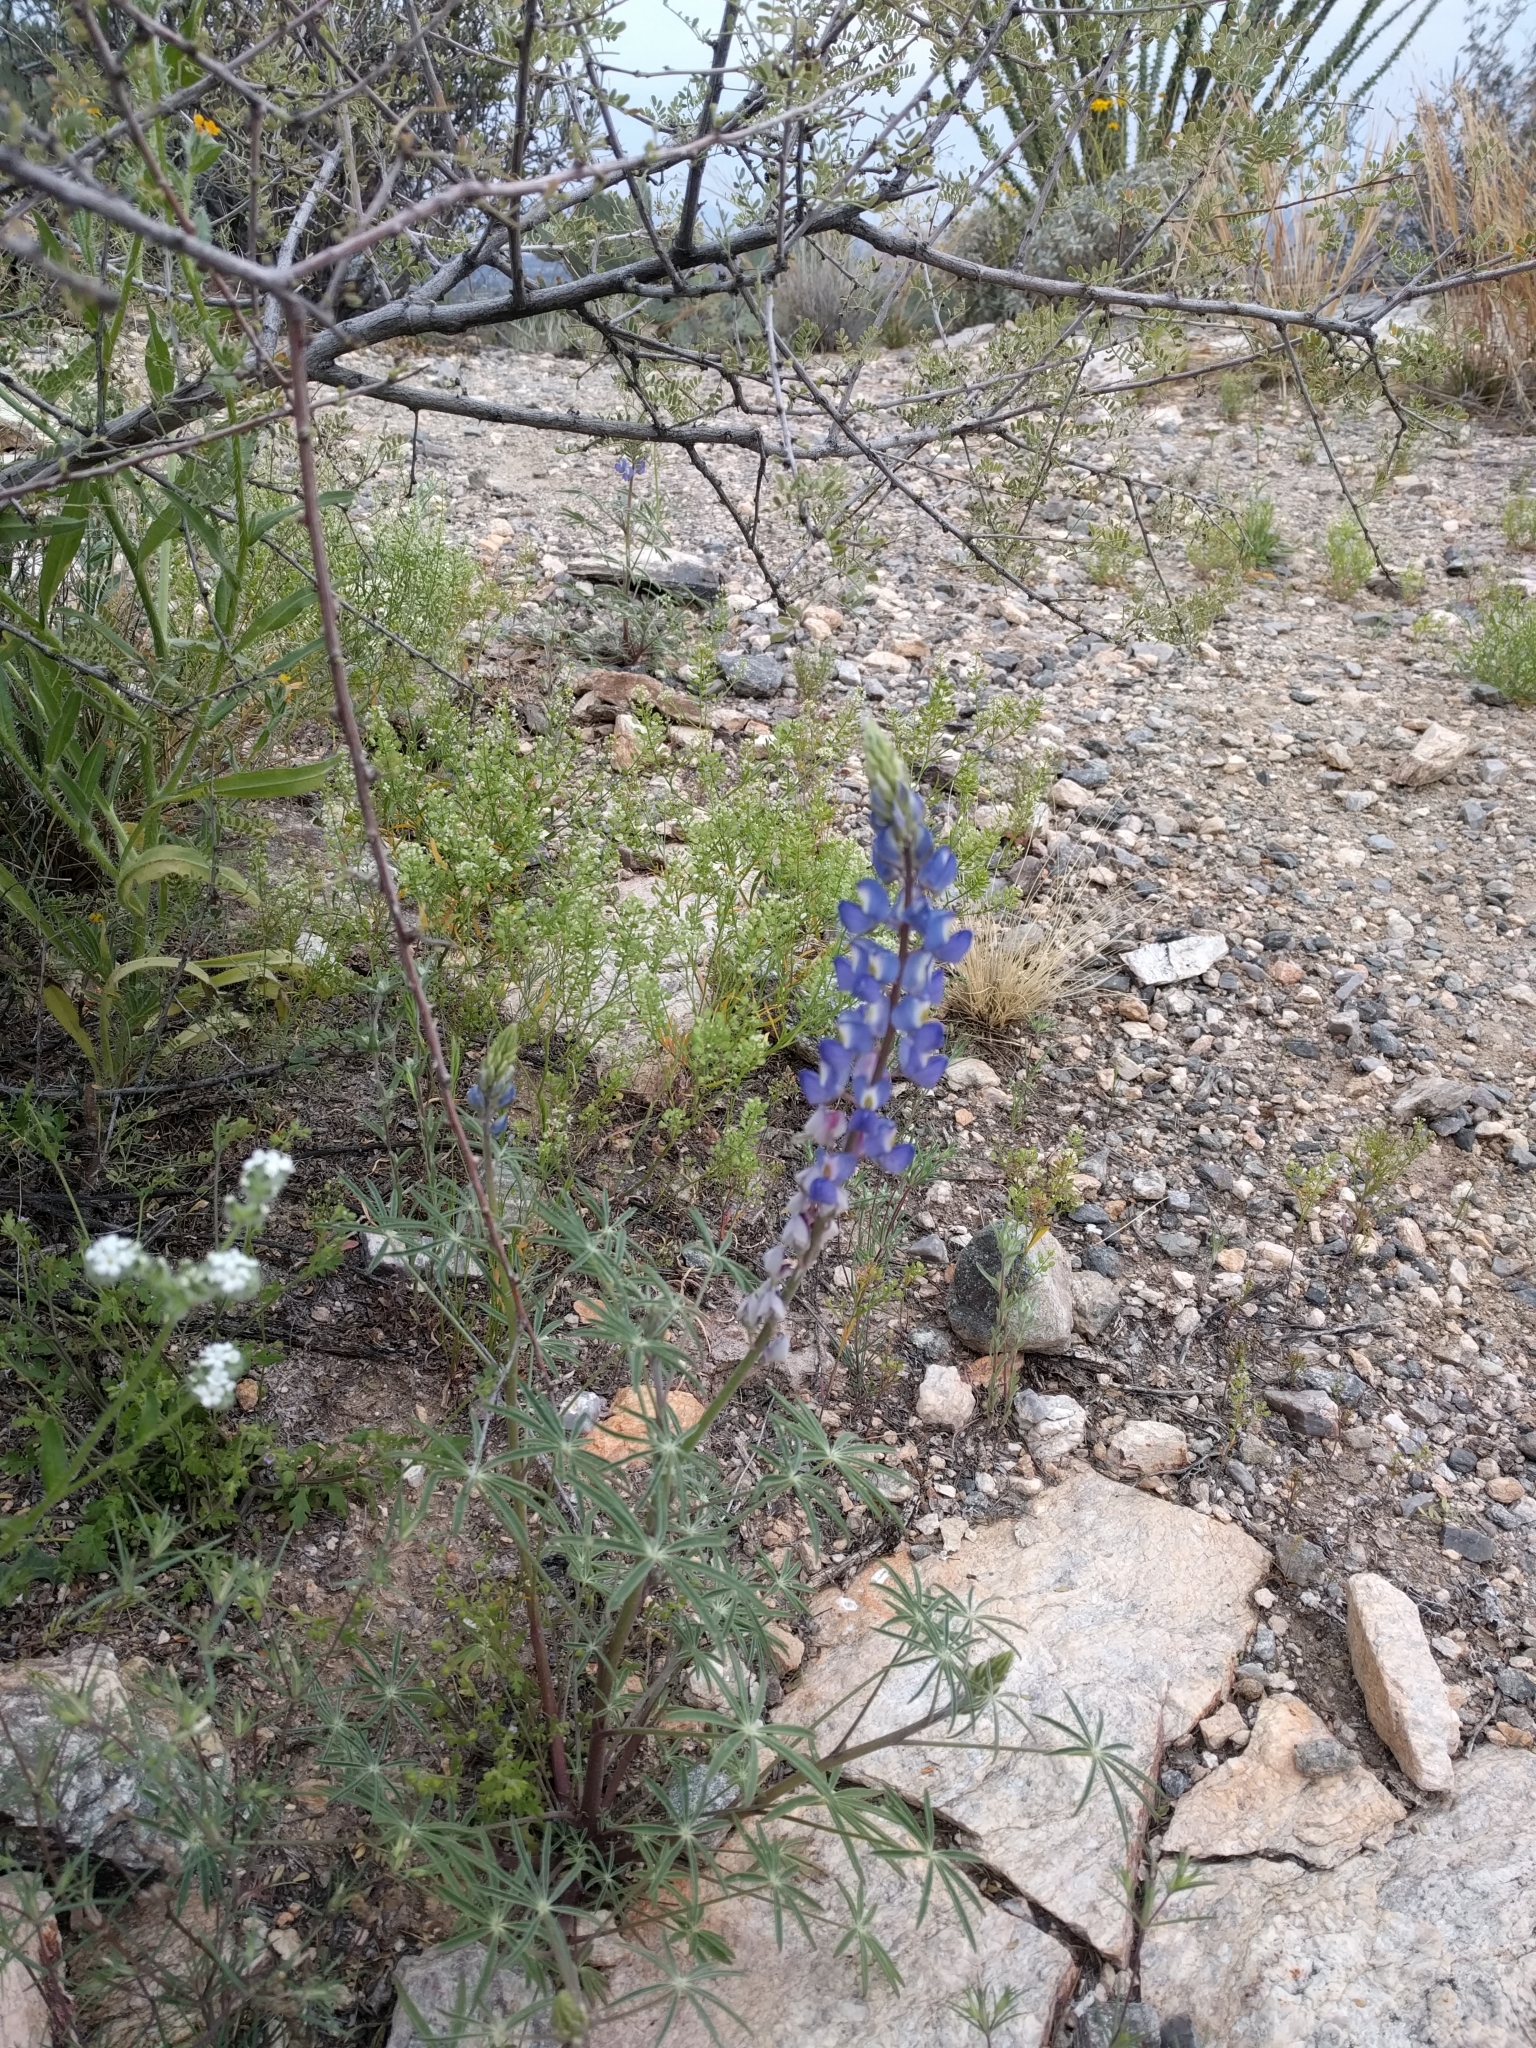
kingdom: Plantae
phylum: Tracheophyta
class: Magnoliopsida
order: Fabales
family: Fabaceae
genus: Lupinus
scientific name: Lupinus sparsiflorus
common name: Coulter's lupine
